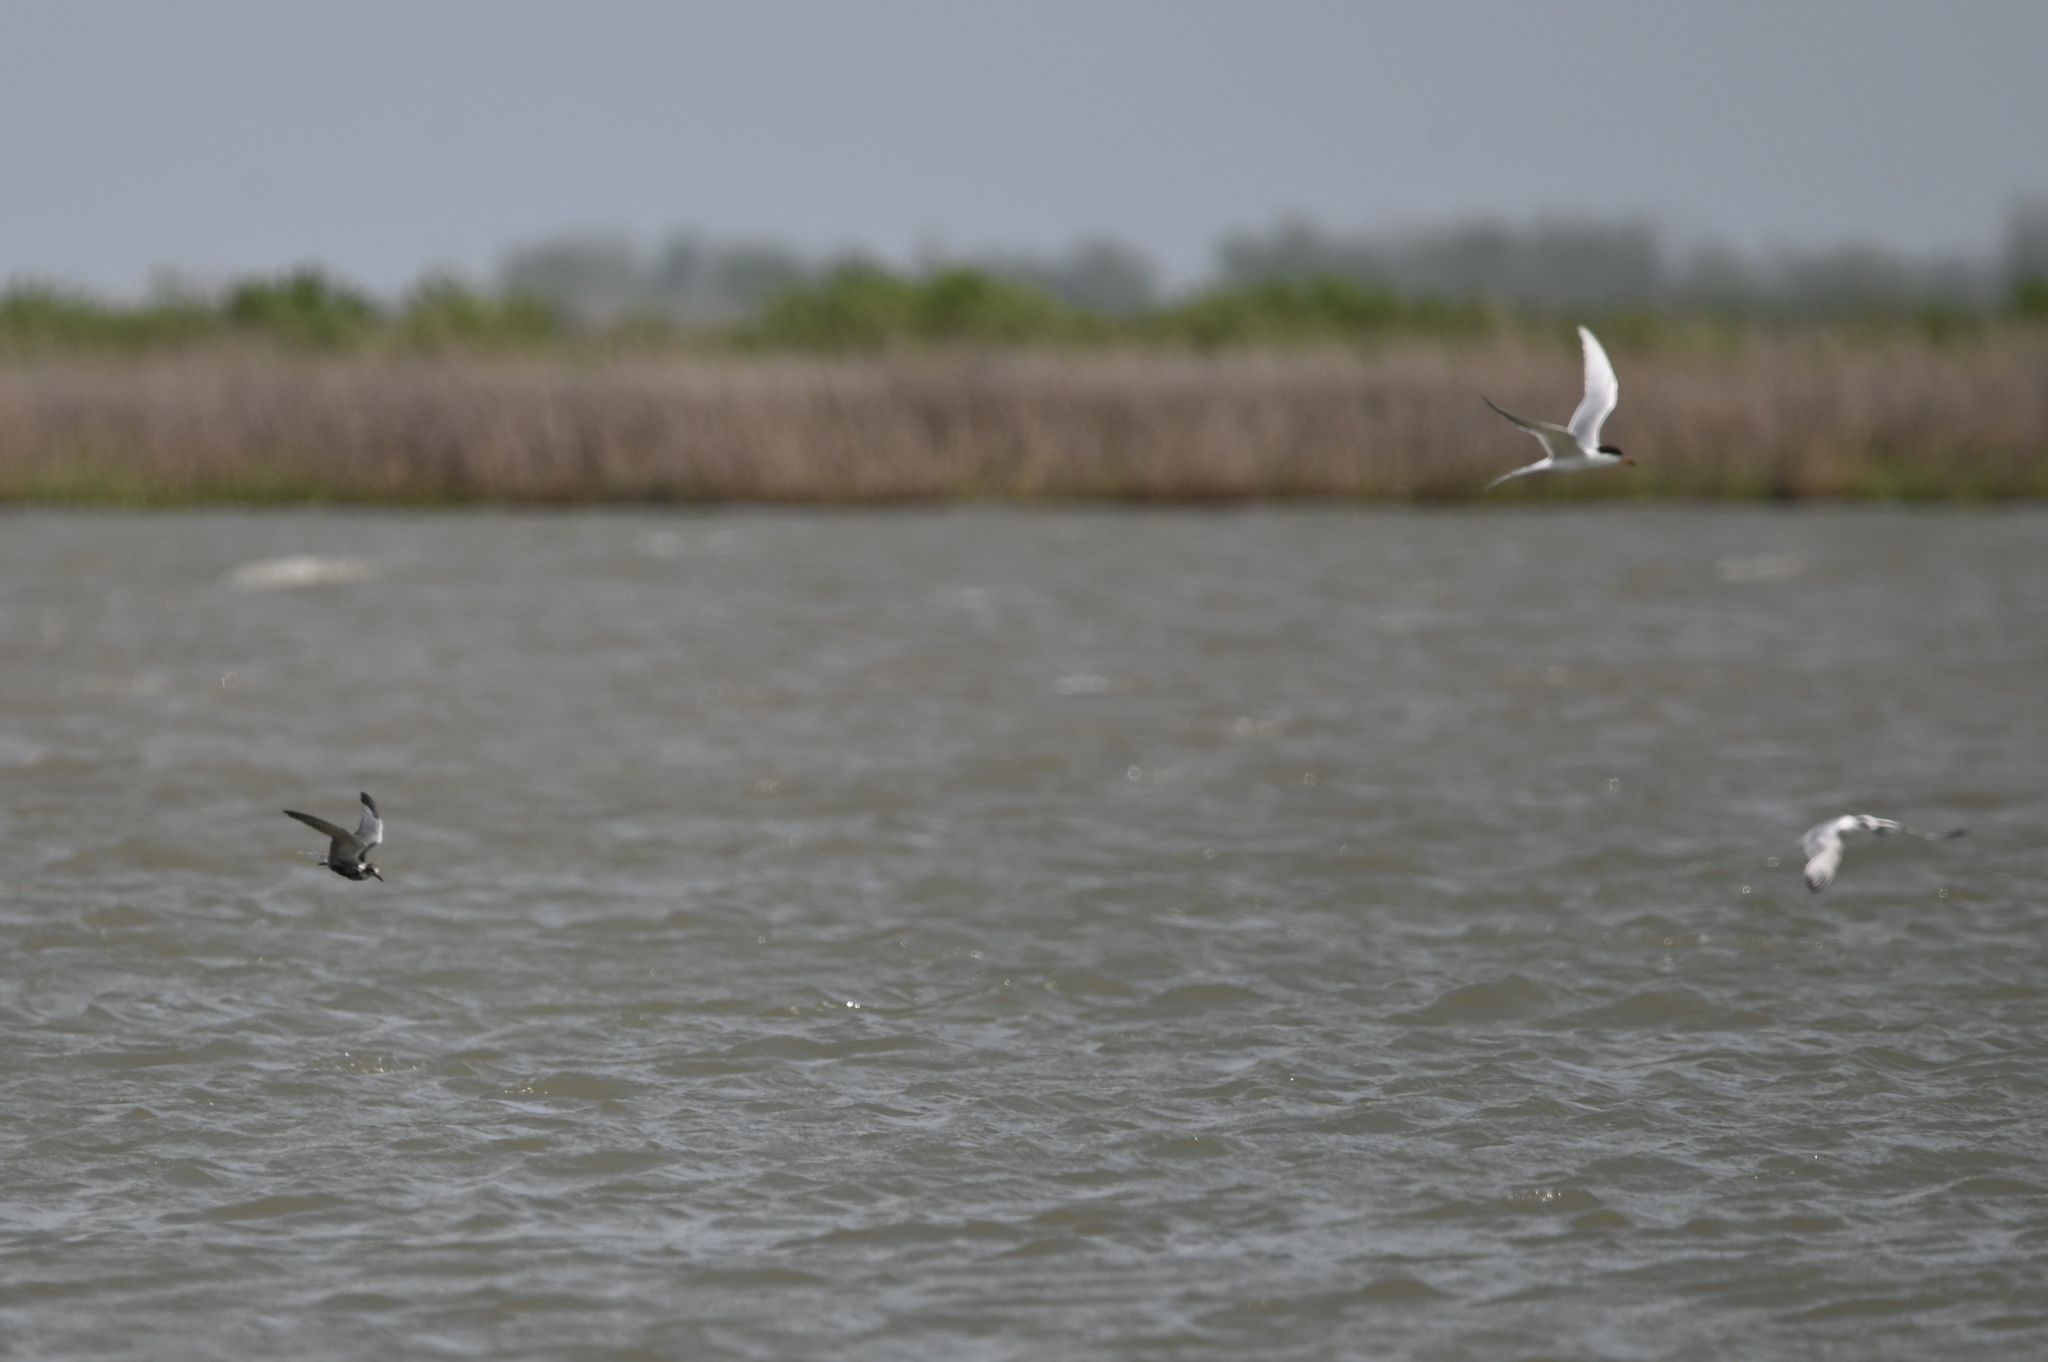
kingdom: Animalia
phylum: Chordata
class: Aves
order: Charadriiformes
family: Laridae
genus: Chlidonias
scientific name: Chlidonias niger
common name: Black tern
